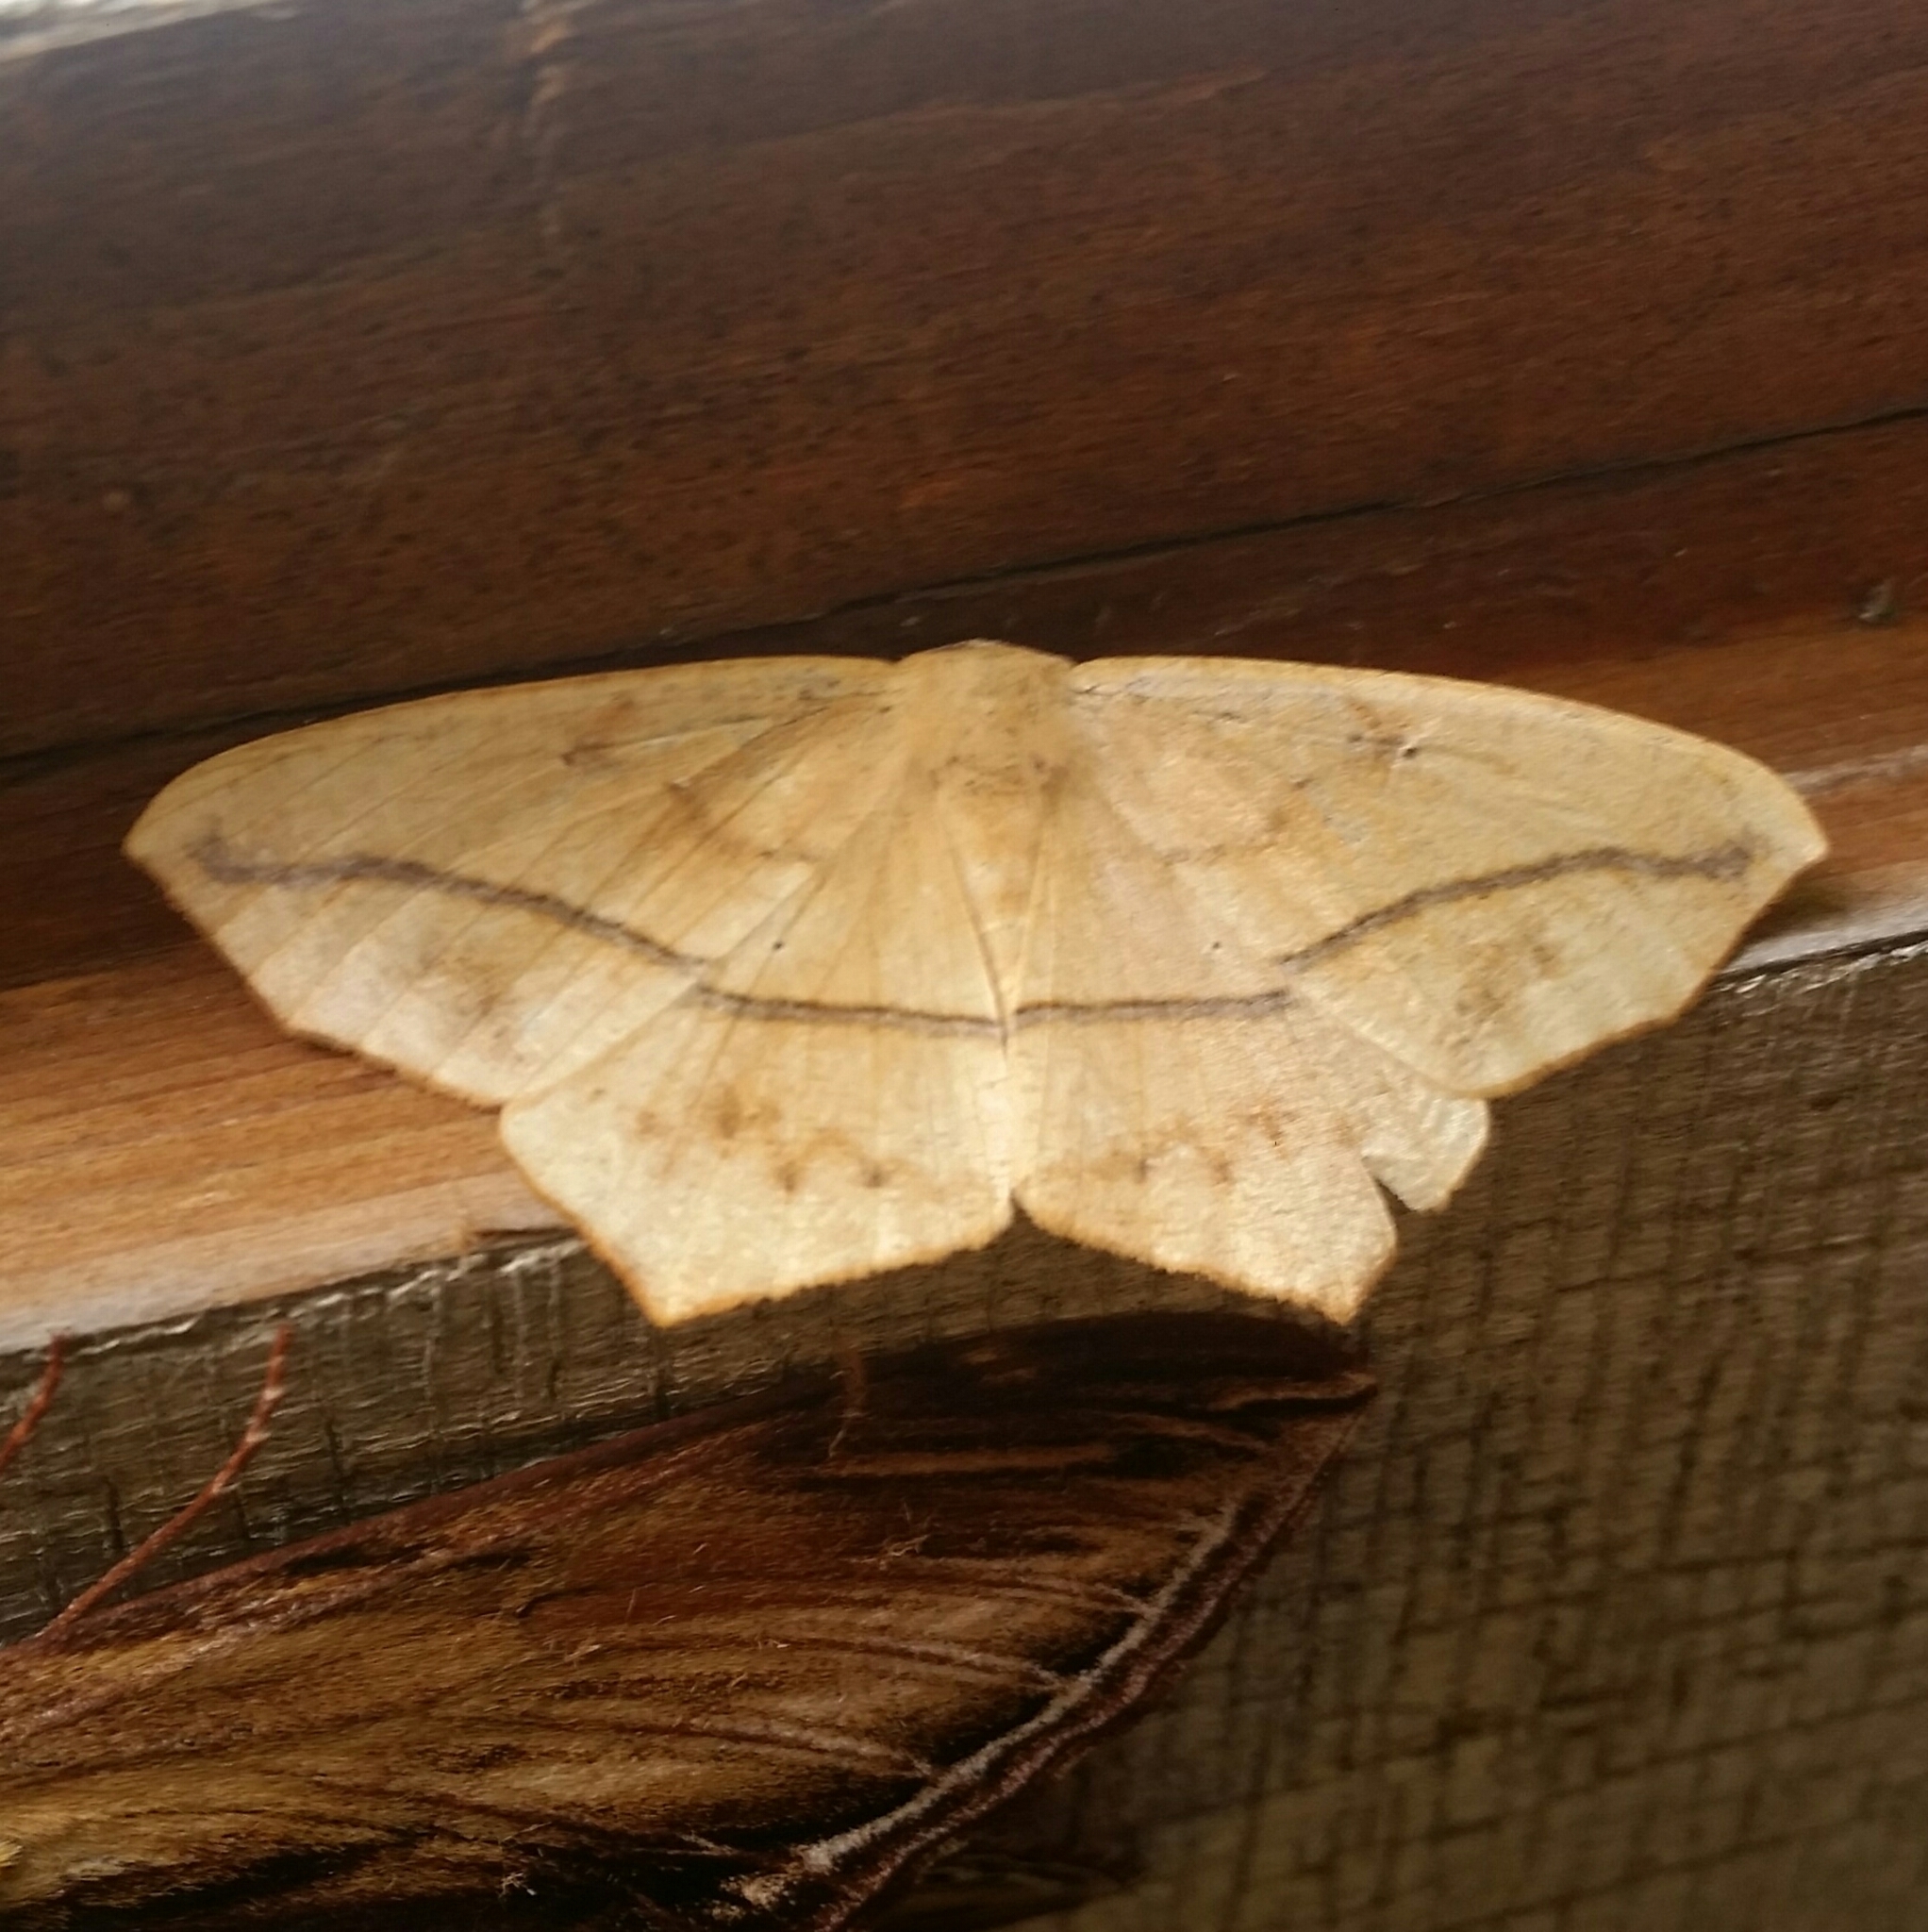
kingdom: Animalia
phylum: Arthropoda
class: Insecta
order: Lepidoptera
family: Geometridae
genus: Prochoerodes
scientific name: Prochoerodes lineola
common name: Large maple spanworm
